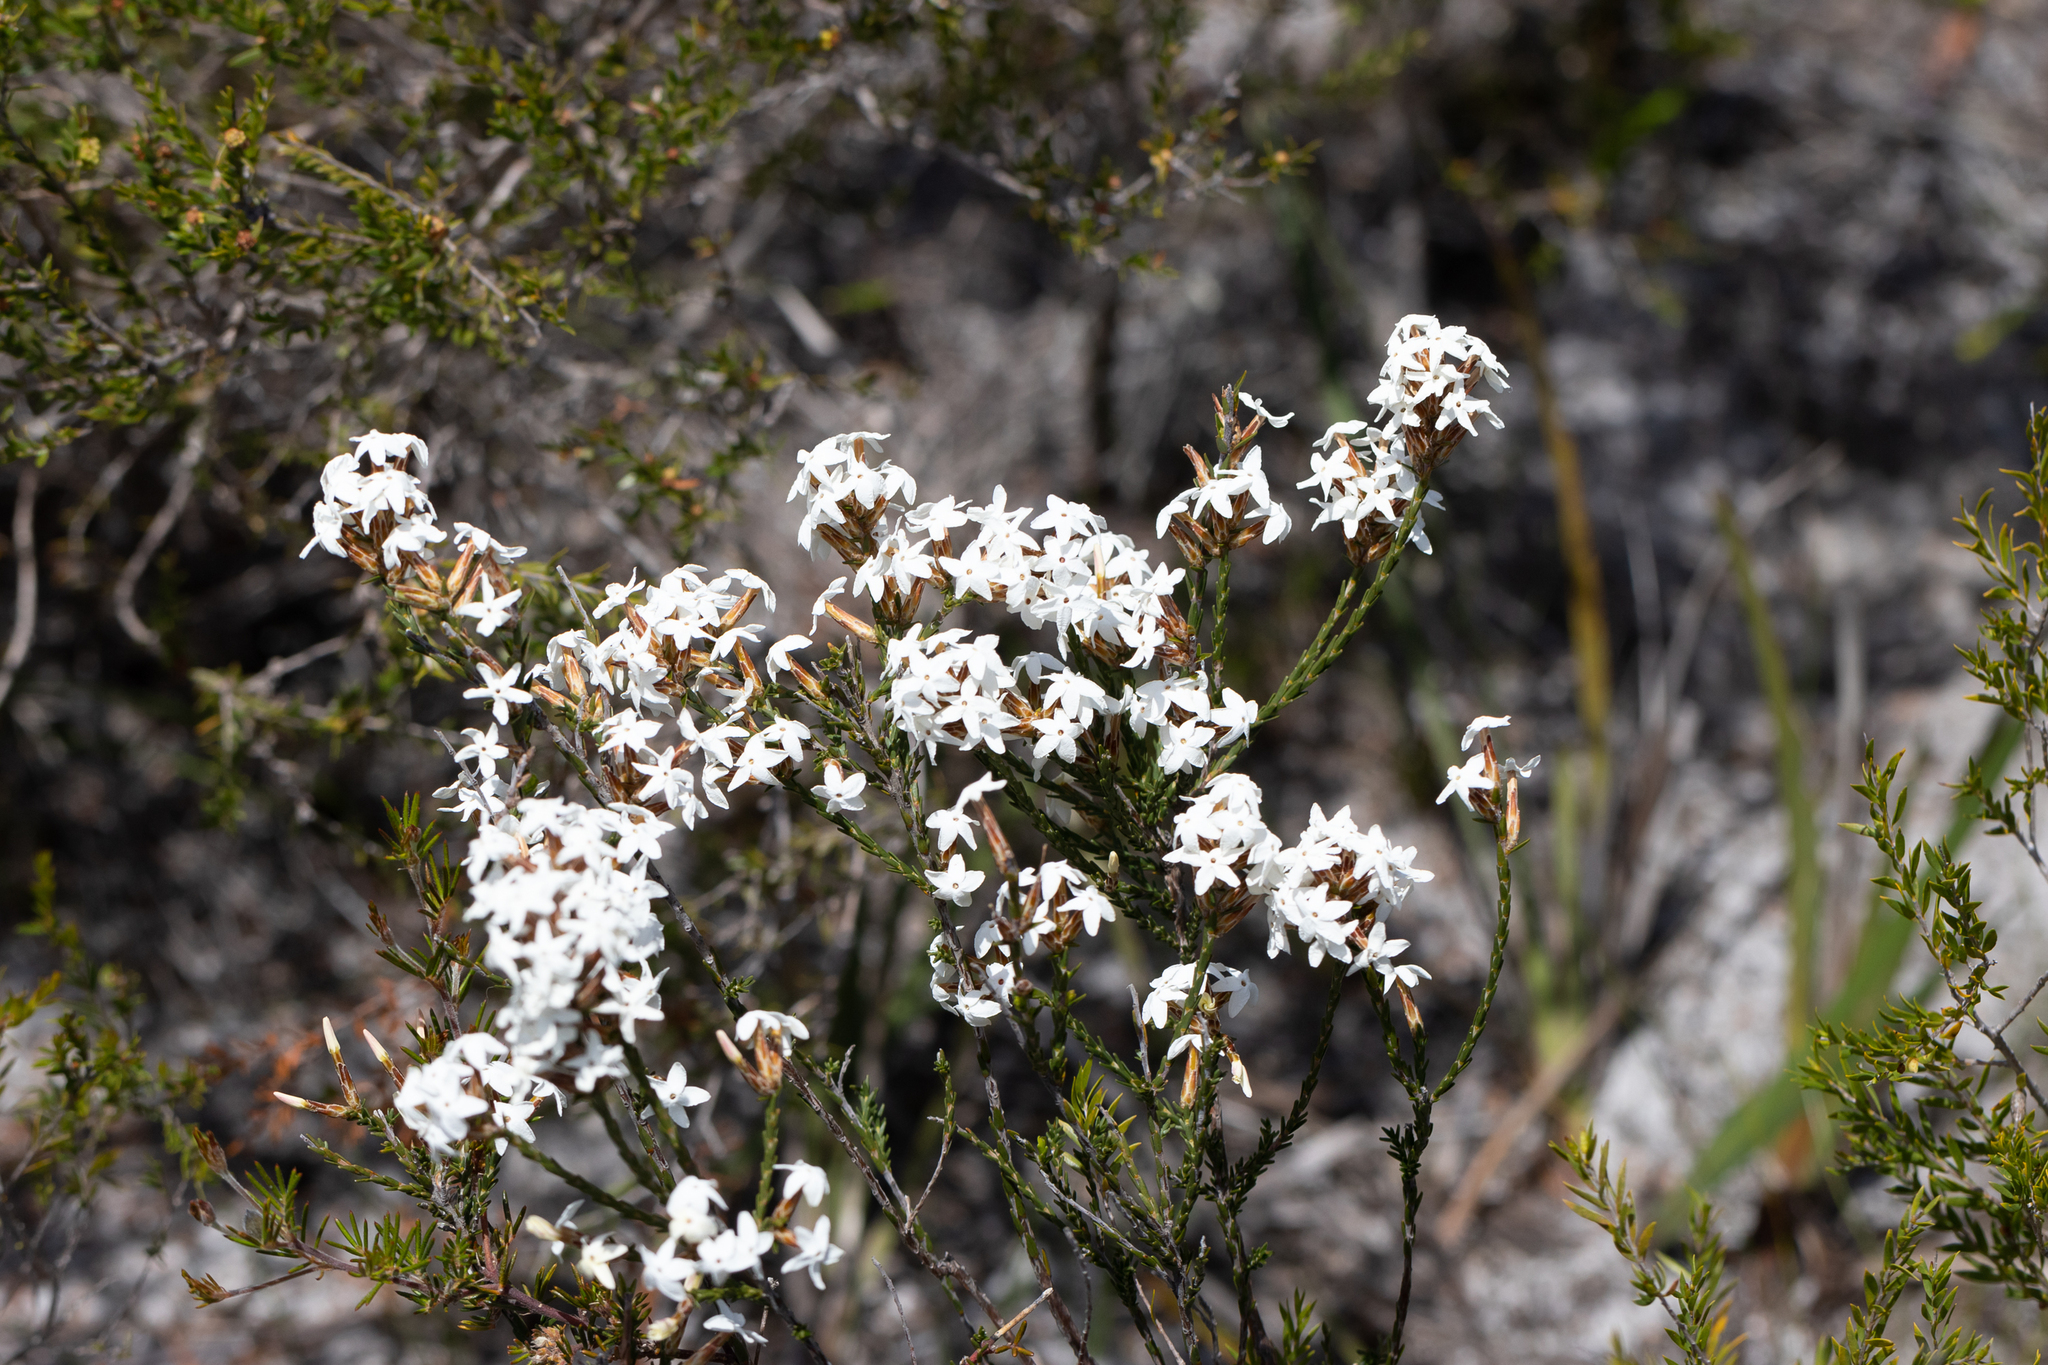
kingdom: Plantae
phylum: Tracheophyta
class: Magnoliopsida
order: Ericales
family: Ericaceae
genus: Lysinema
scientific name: Lysinema pentapetalum
